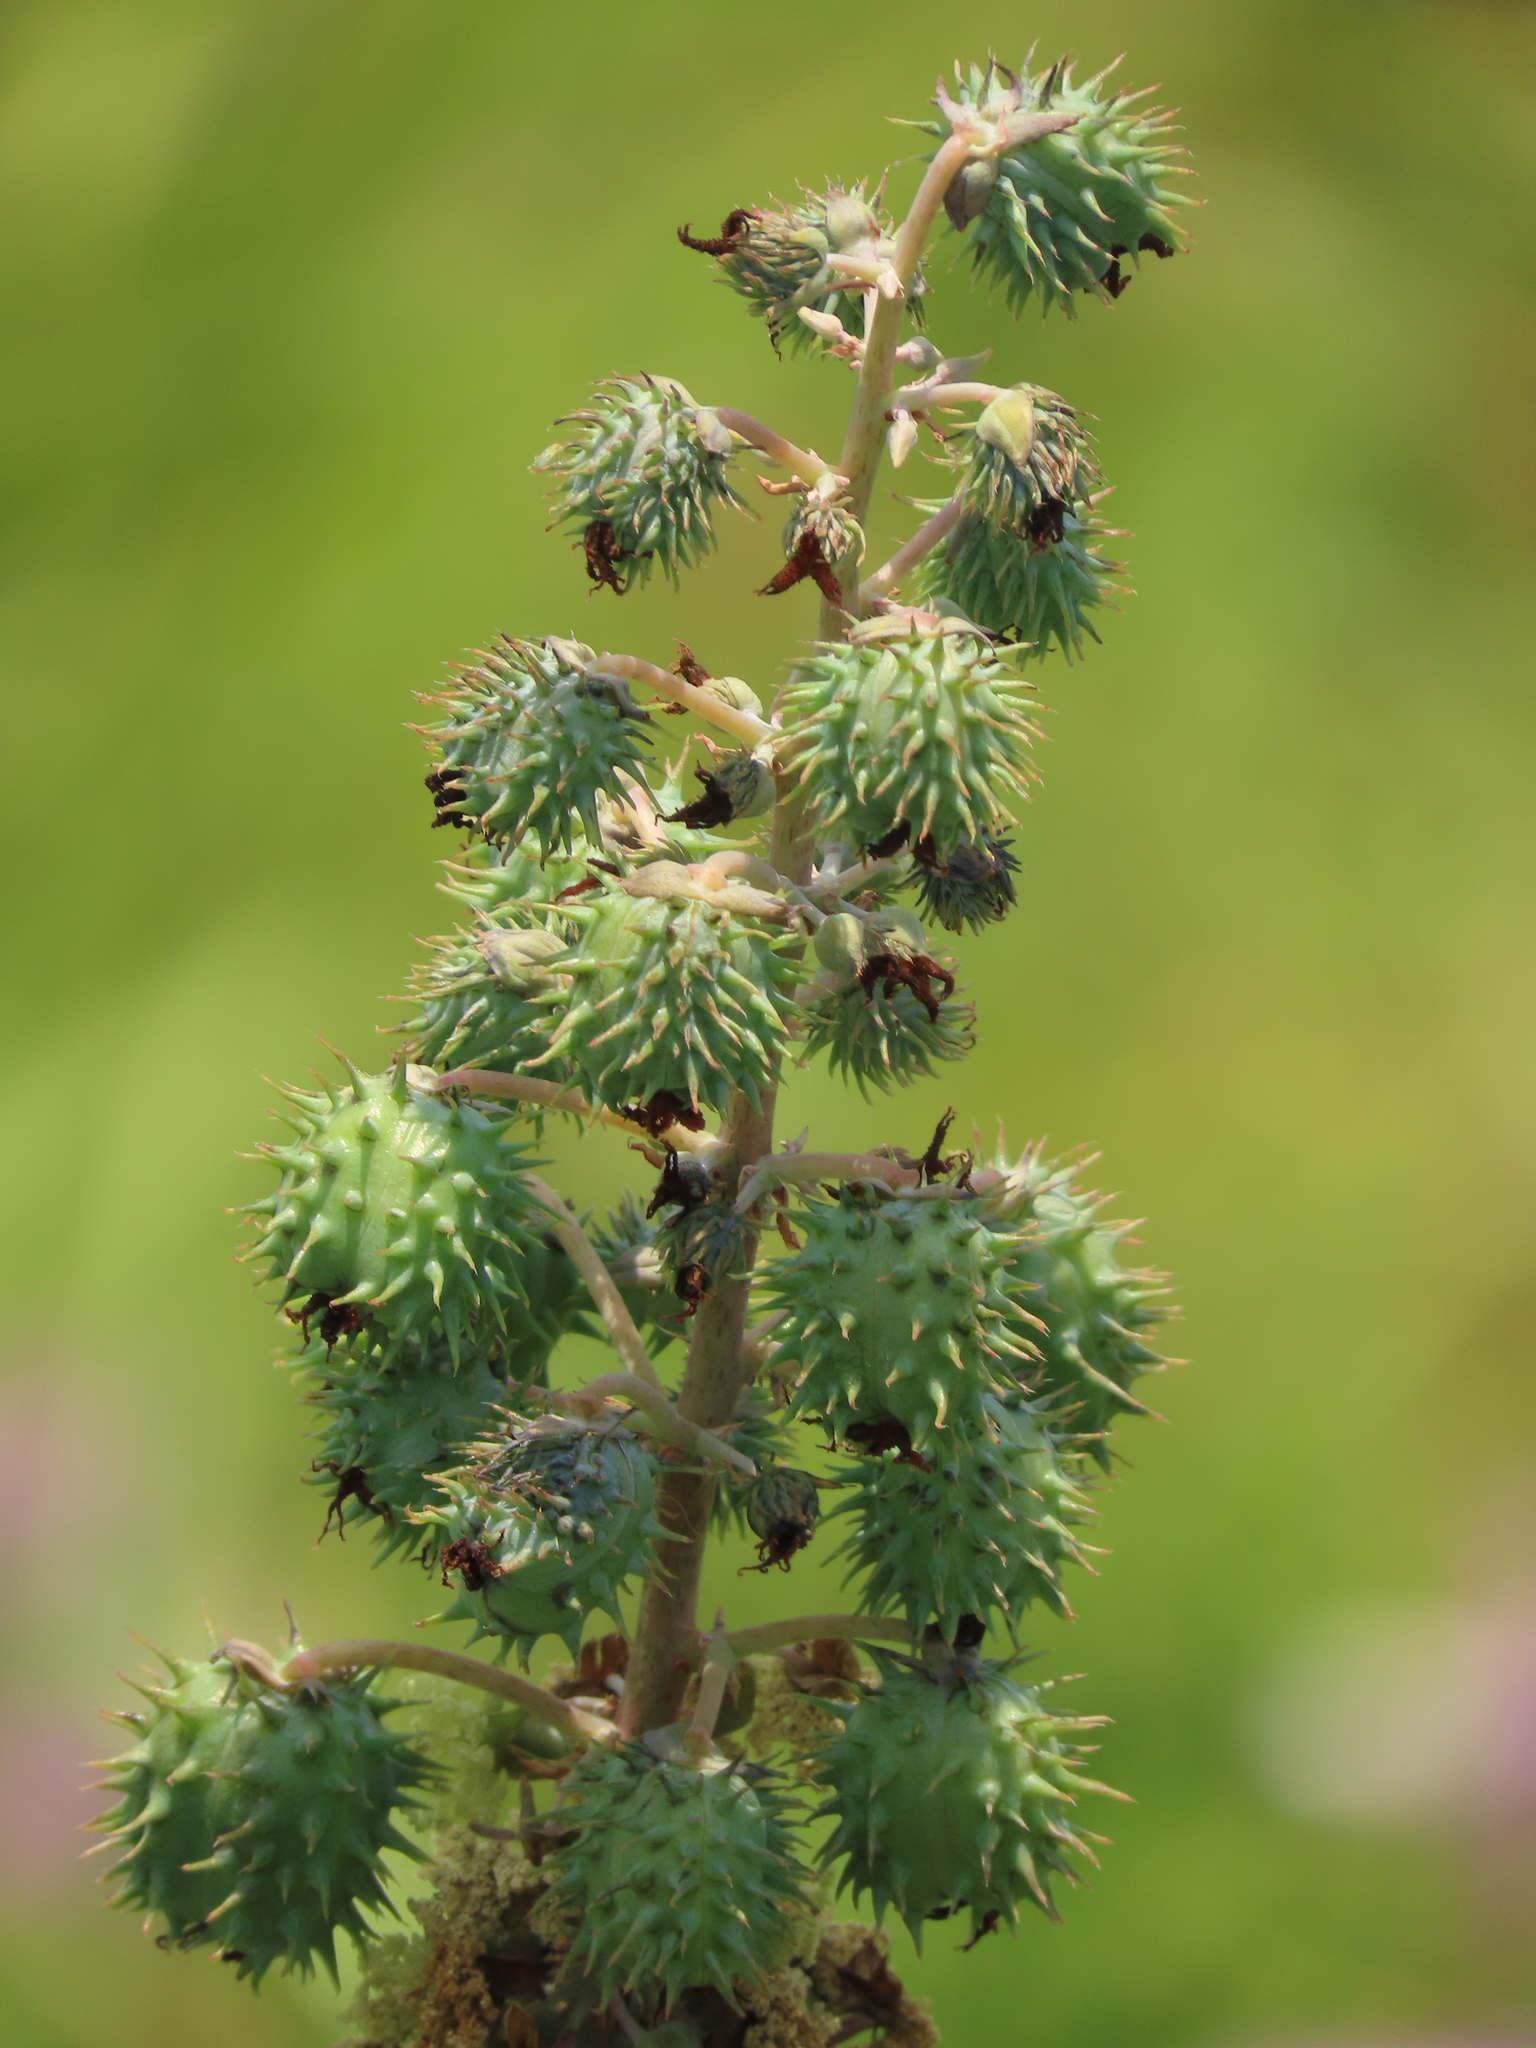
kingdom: Plantae
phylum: Tracheophyta
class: Magnoliopsida
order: Malpighiales
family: Euphorbiaceae
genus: Ricinus
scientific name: Ricinus communis
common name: Castor-oil-plant
